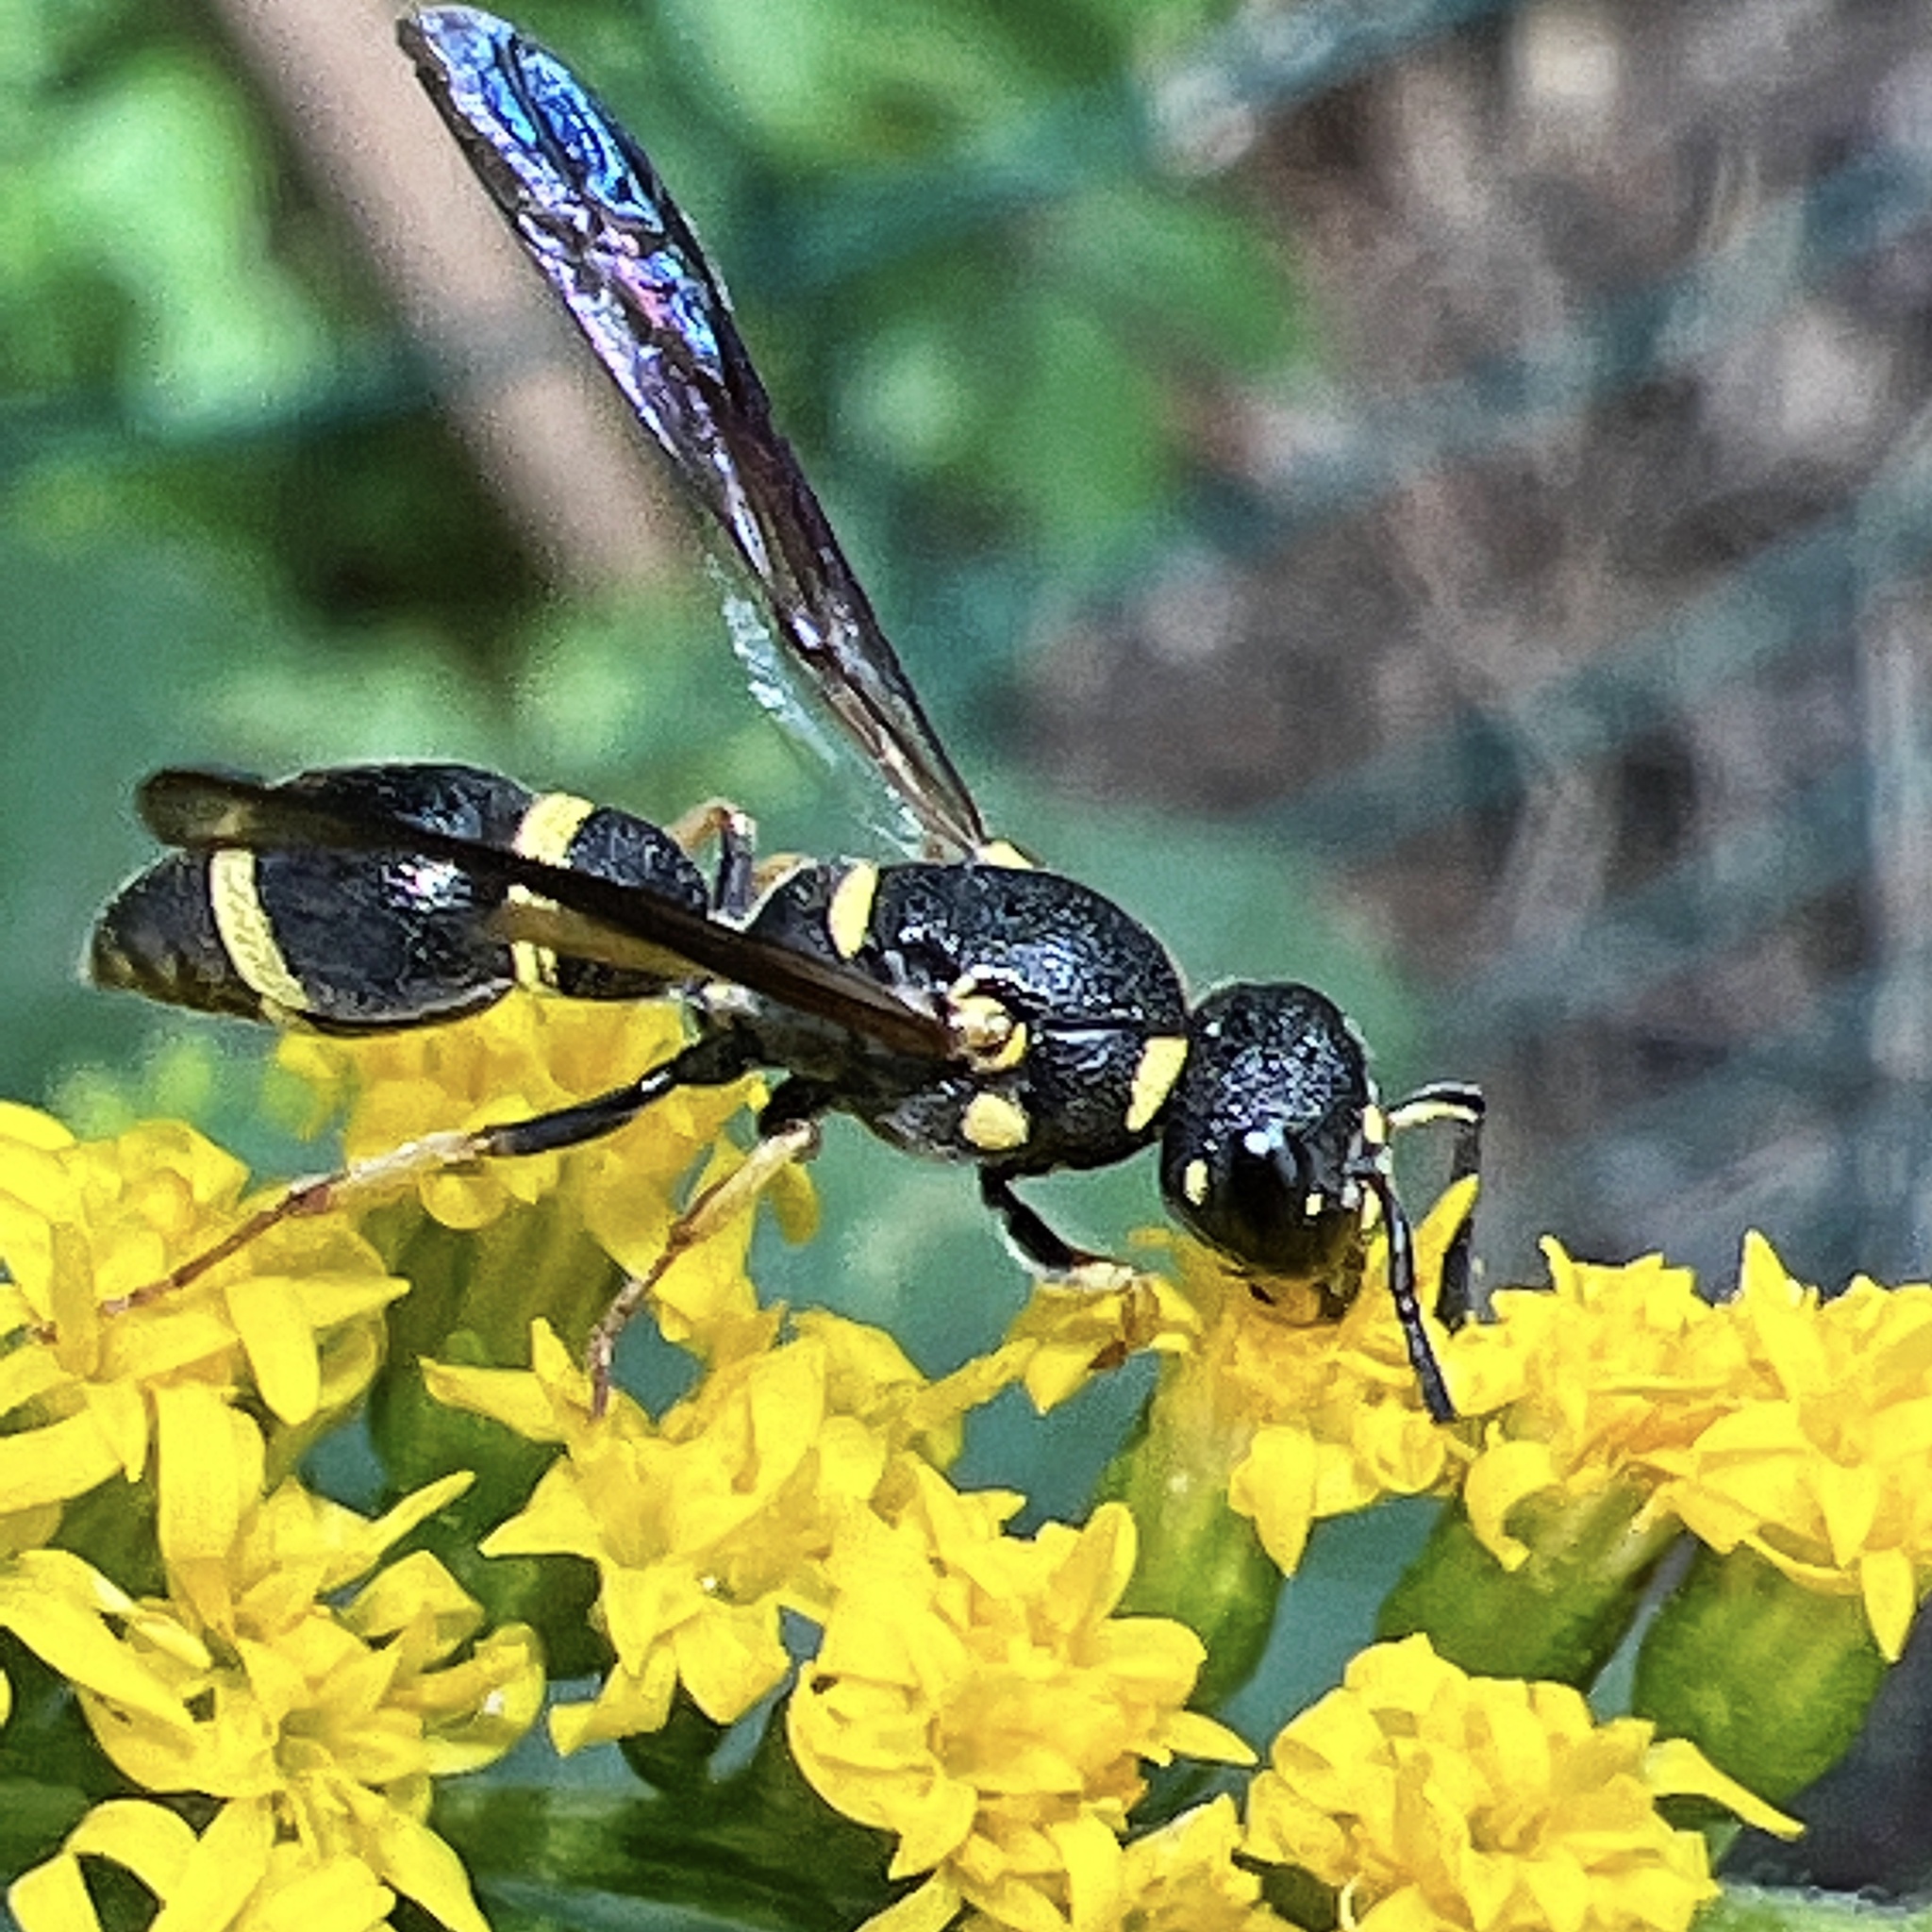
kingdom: Animalia
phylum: Arthropoda
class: Insecta
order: Hymenoptera
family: Eumenidae
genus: Parancistrocerus
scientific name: Parancistrocerus perennis
